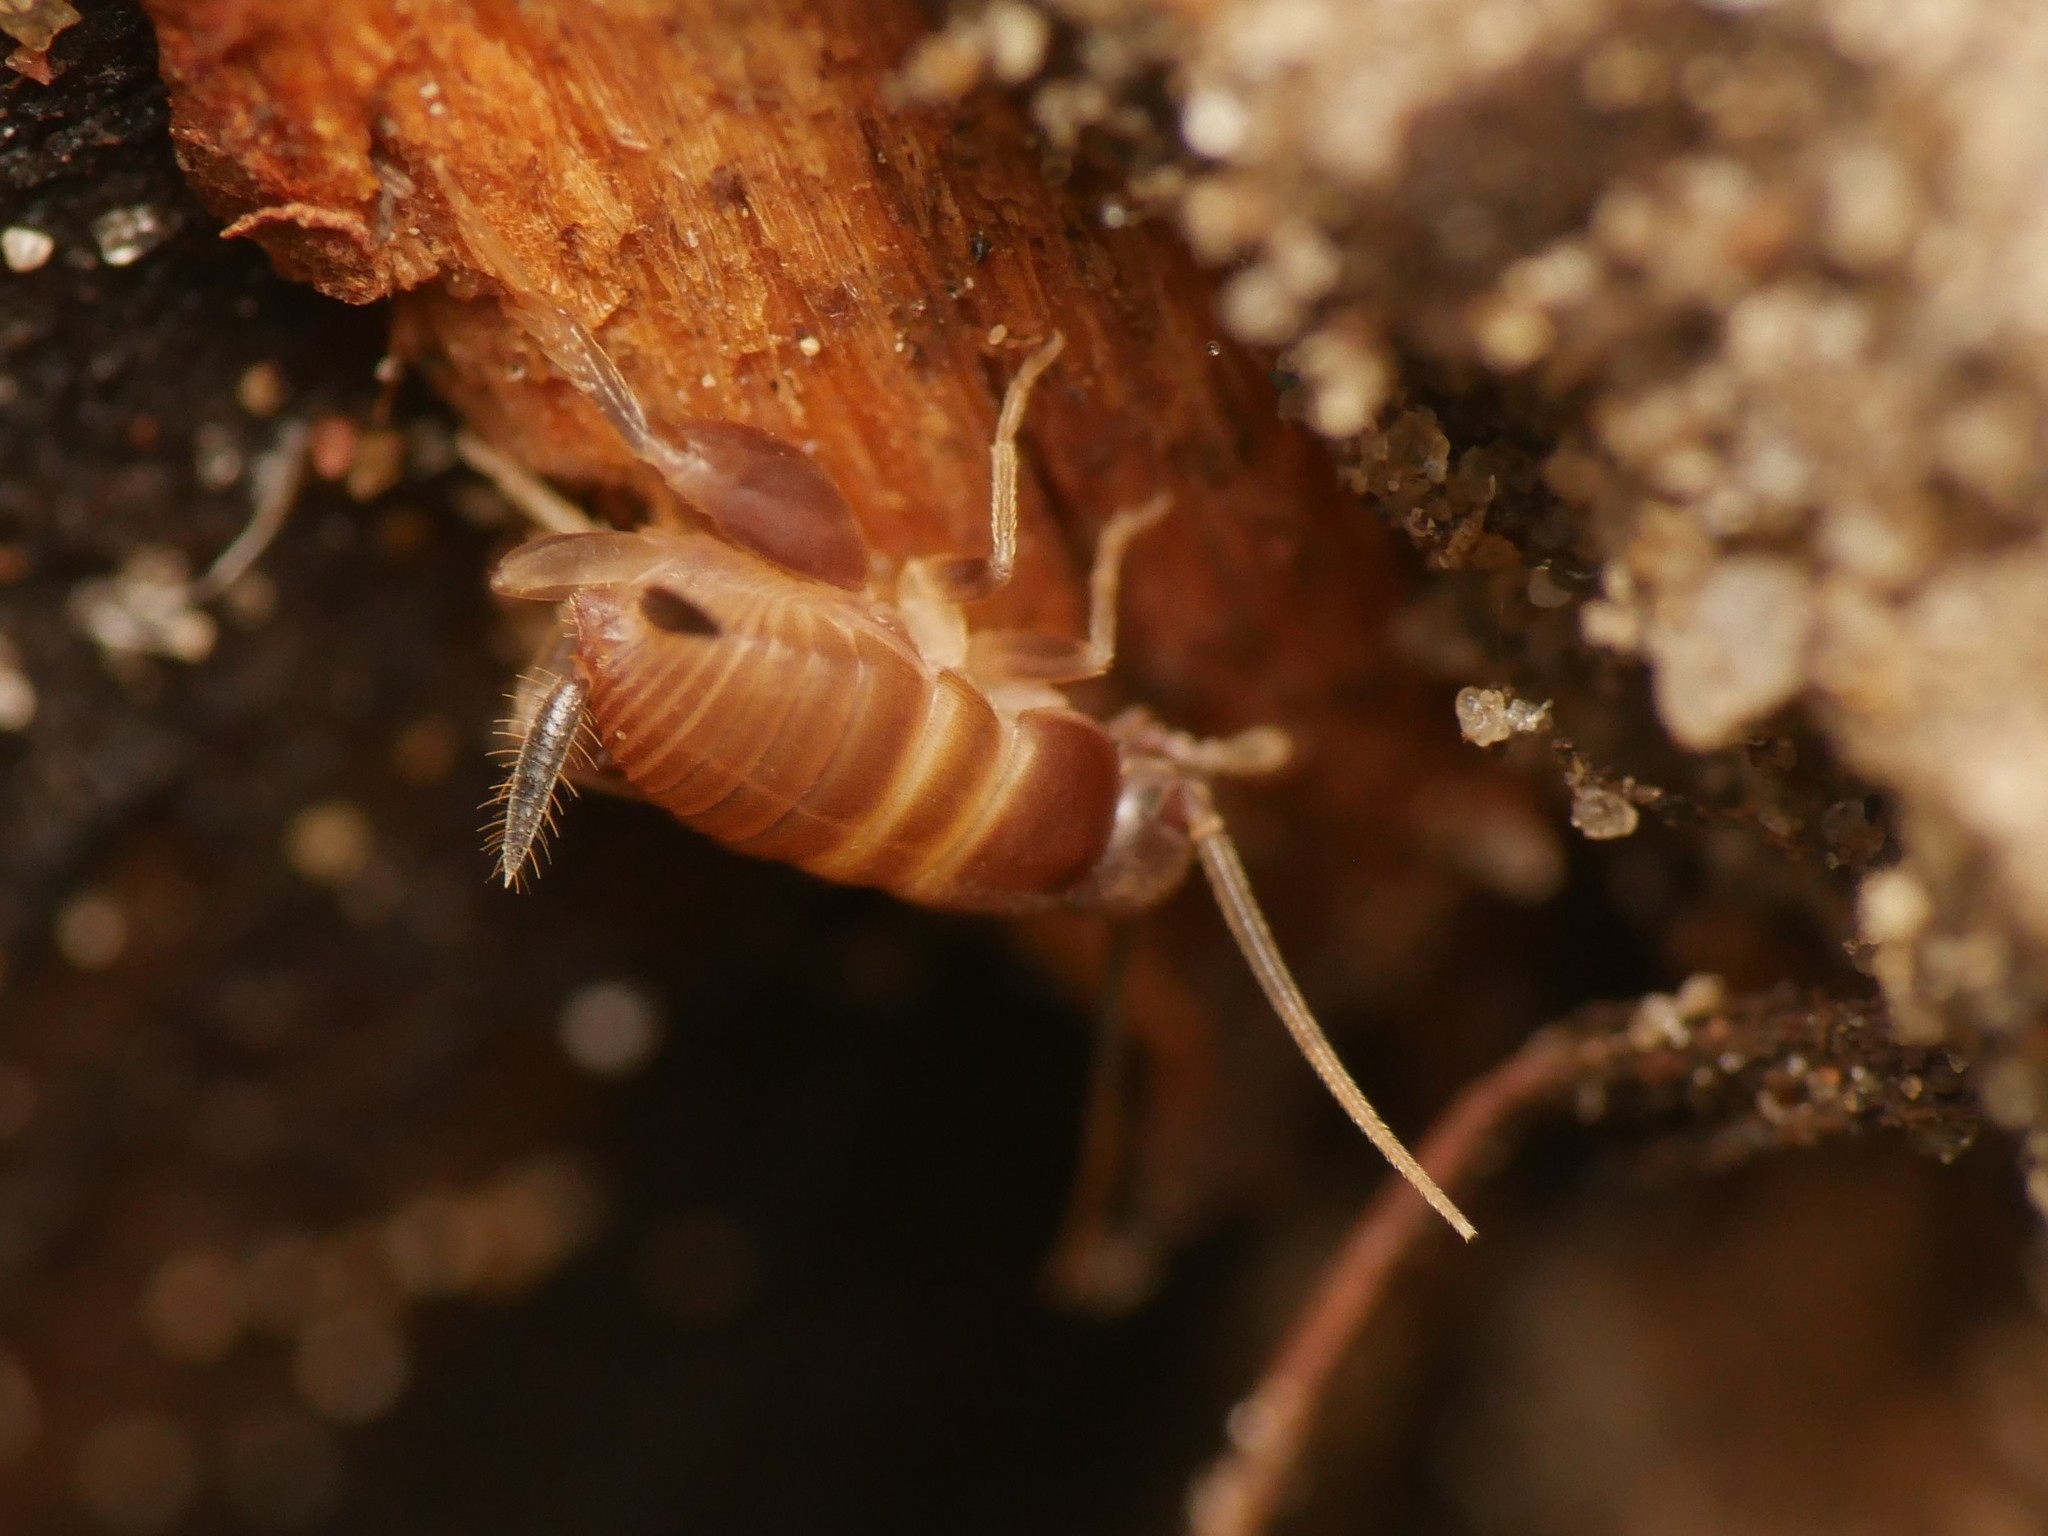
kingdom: Animalia
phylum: Arthropoda
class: Insecta
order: Orthoptera
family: Myrmecophilidae
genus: Myrmecophilus
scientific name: Myrmecophilus acervorum
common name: Ants-nest cricket
